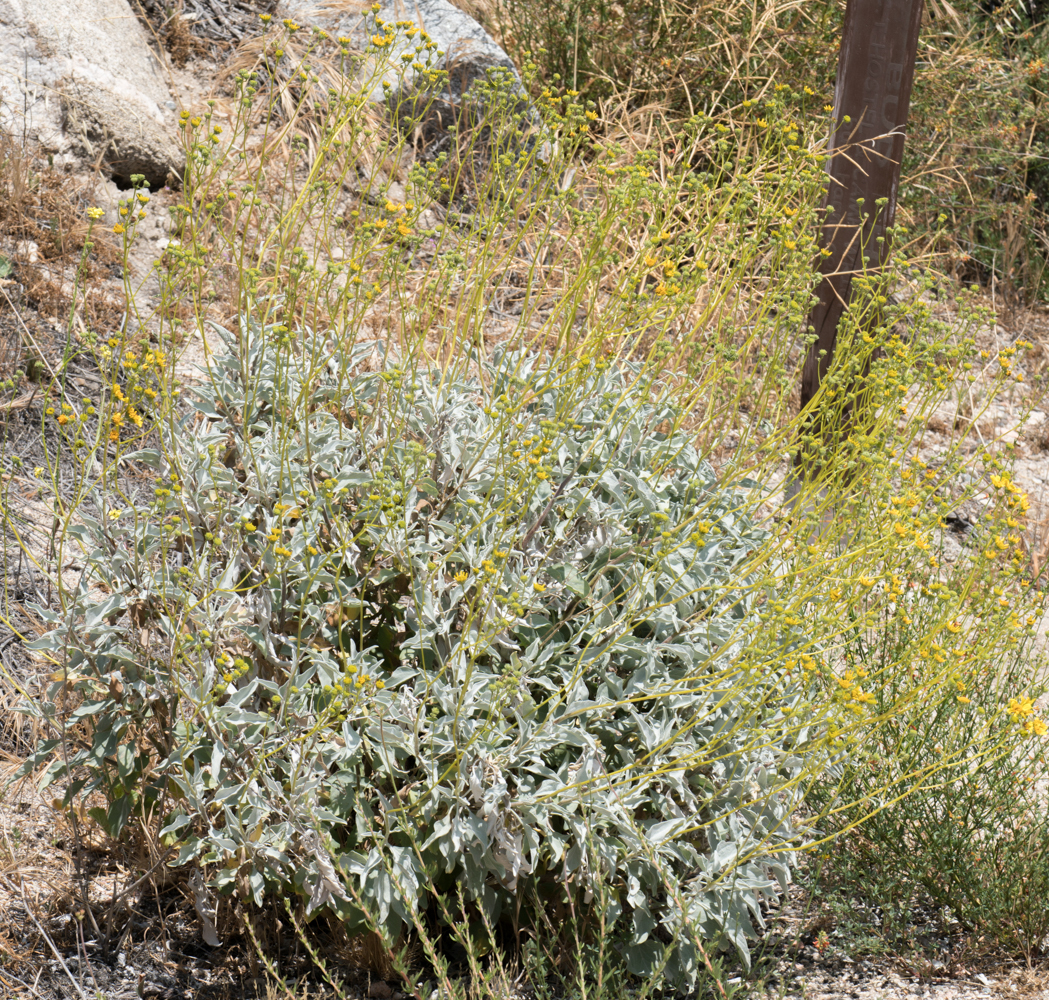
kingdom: Plantae
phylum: Tracheophyta
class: Magnoliopsida
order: Asterales
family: Asteraceae
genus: Encelia
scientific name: Encelia farinosa
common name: Brittlebush
